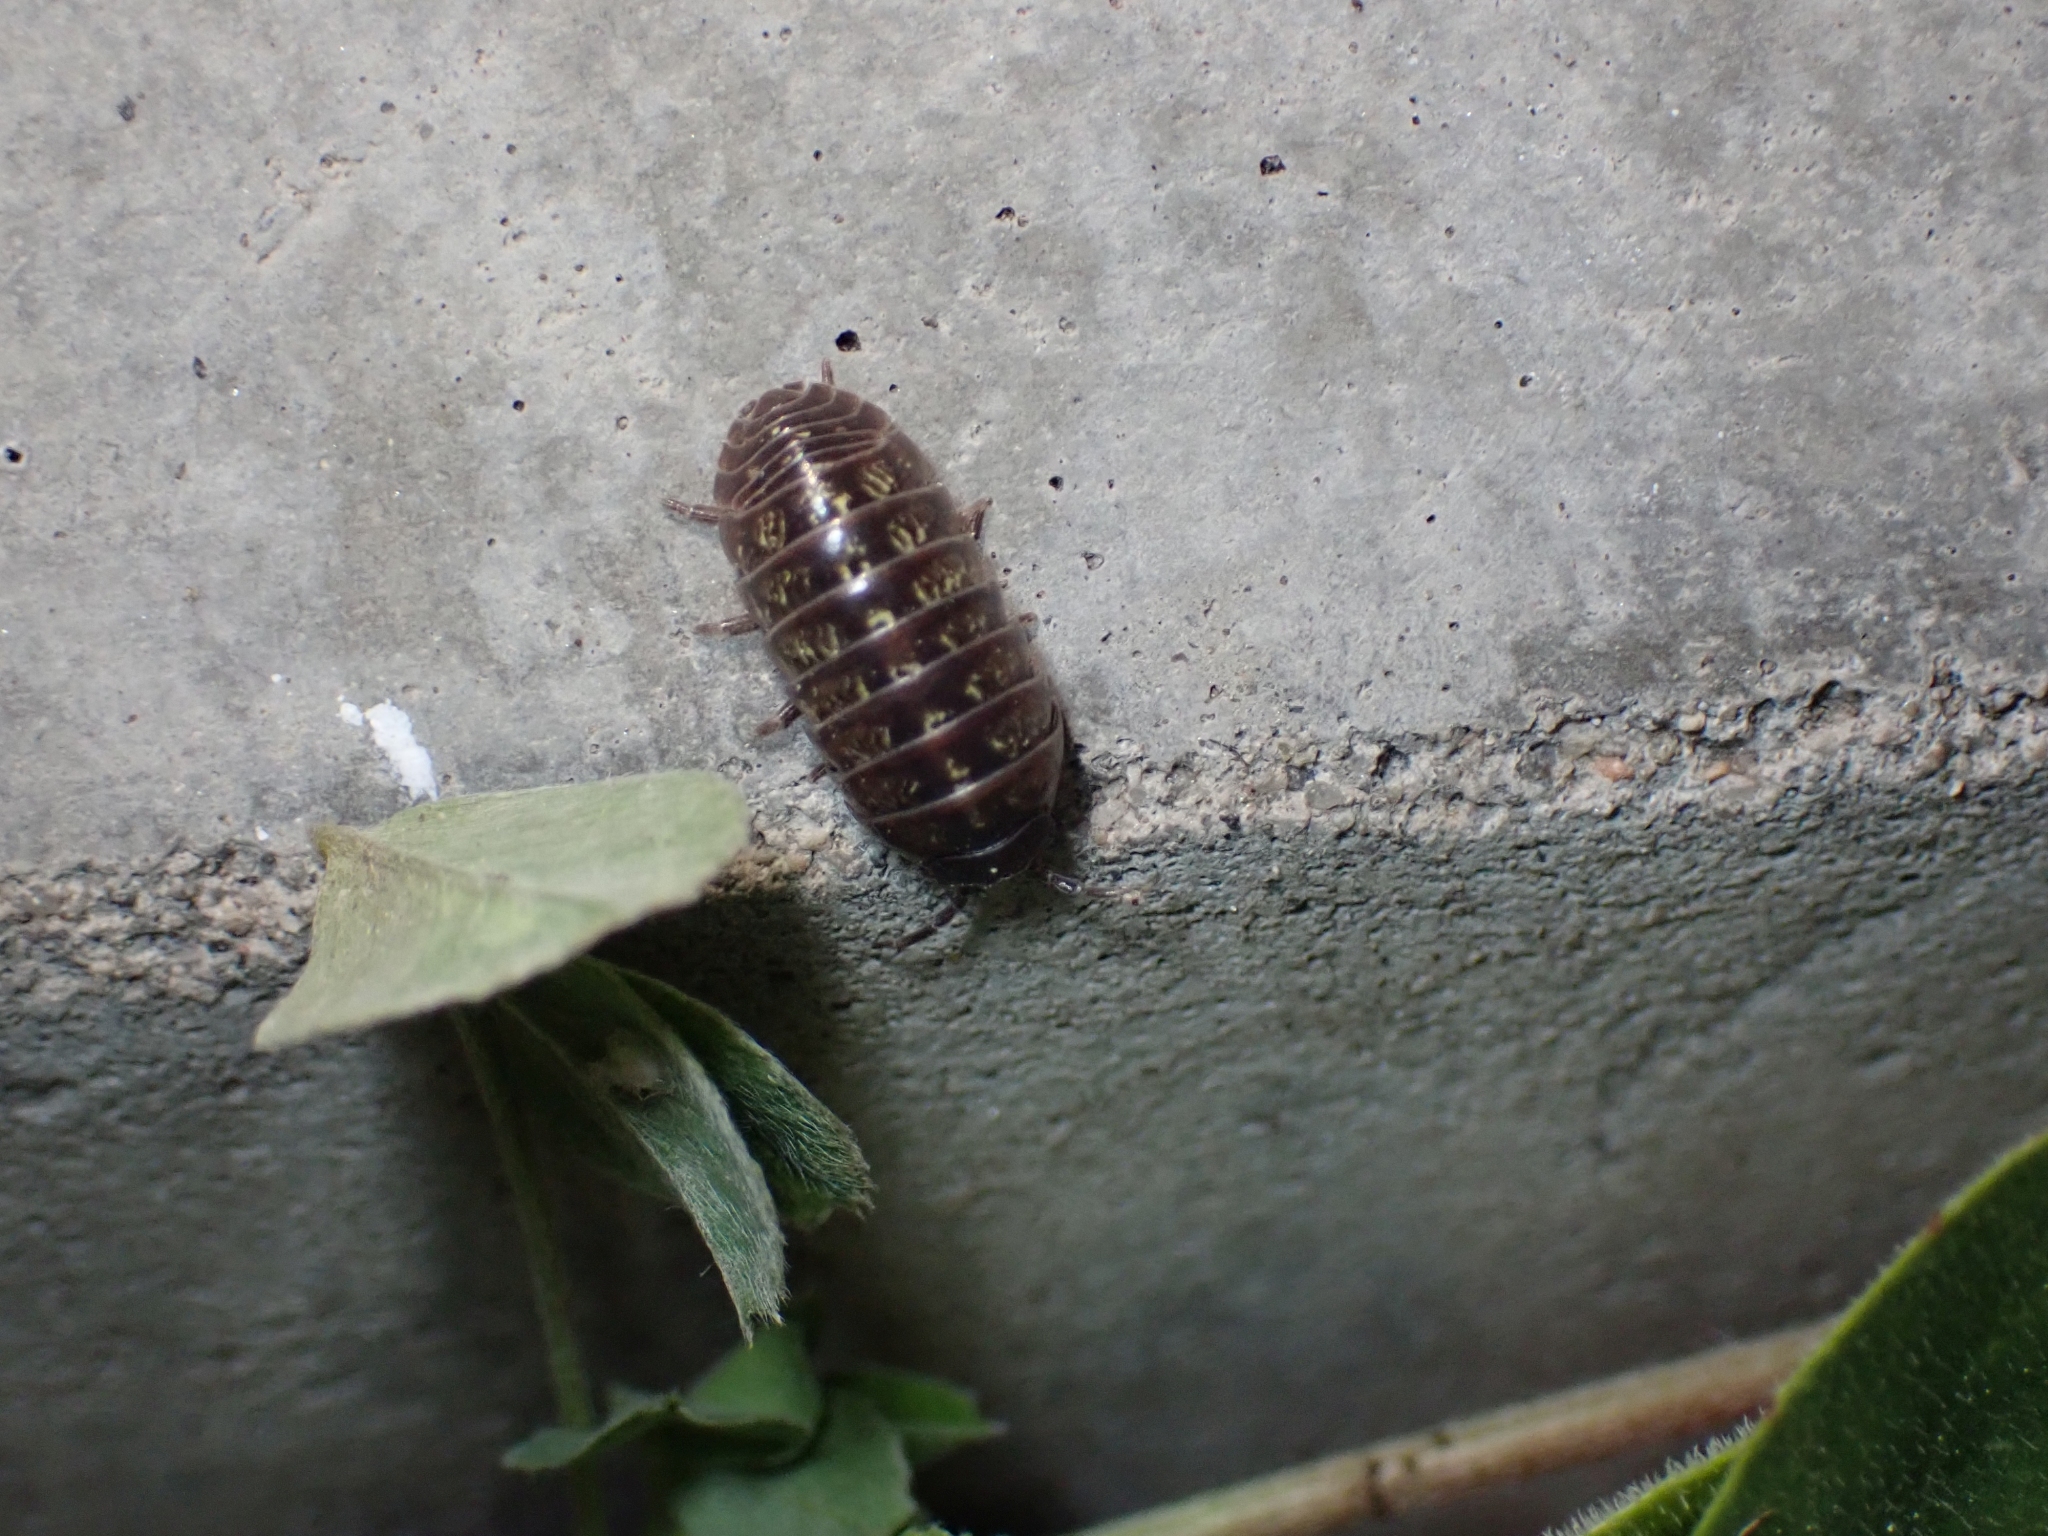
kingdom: Animalia
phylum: Arthropoda
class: Malacostraca
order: Isopoda
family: Armadillidiidae
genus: Armadillidium
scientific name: Armadillidium vulgare
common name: Common pill woodlouse
